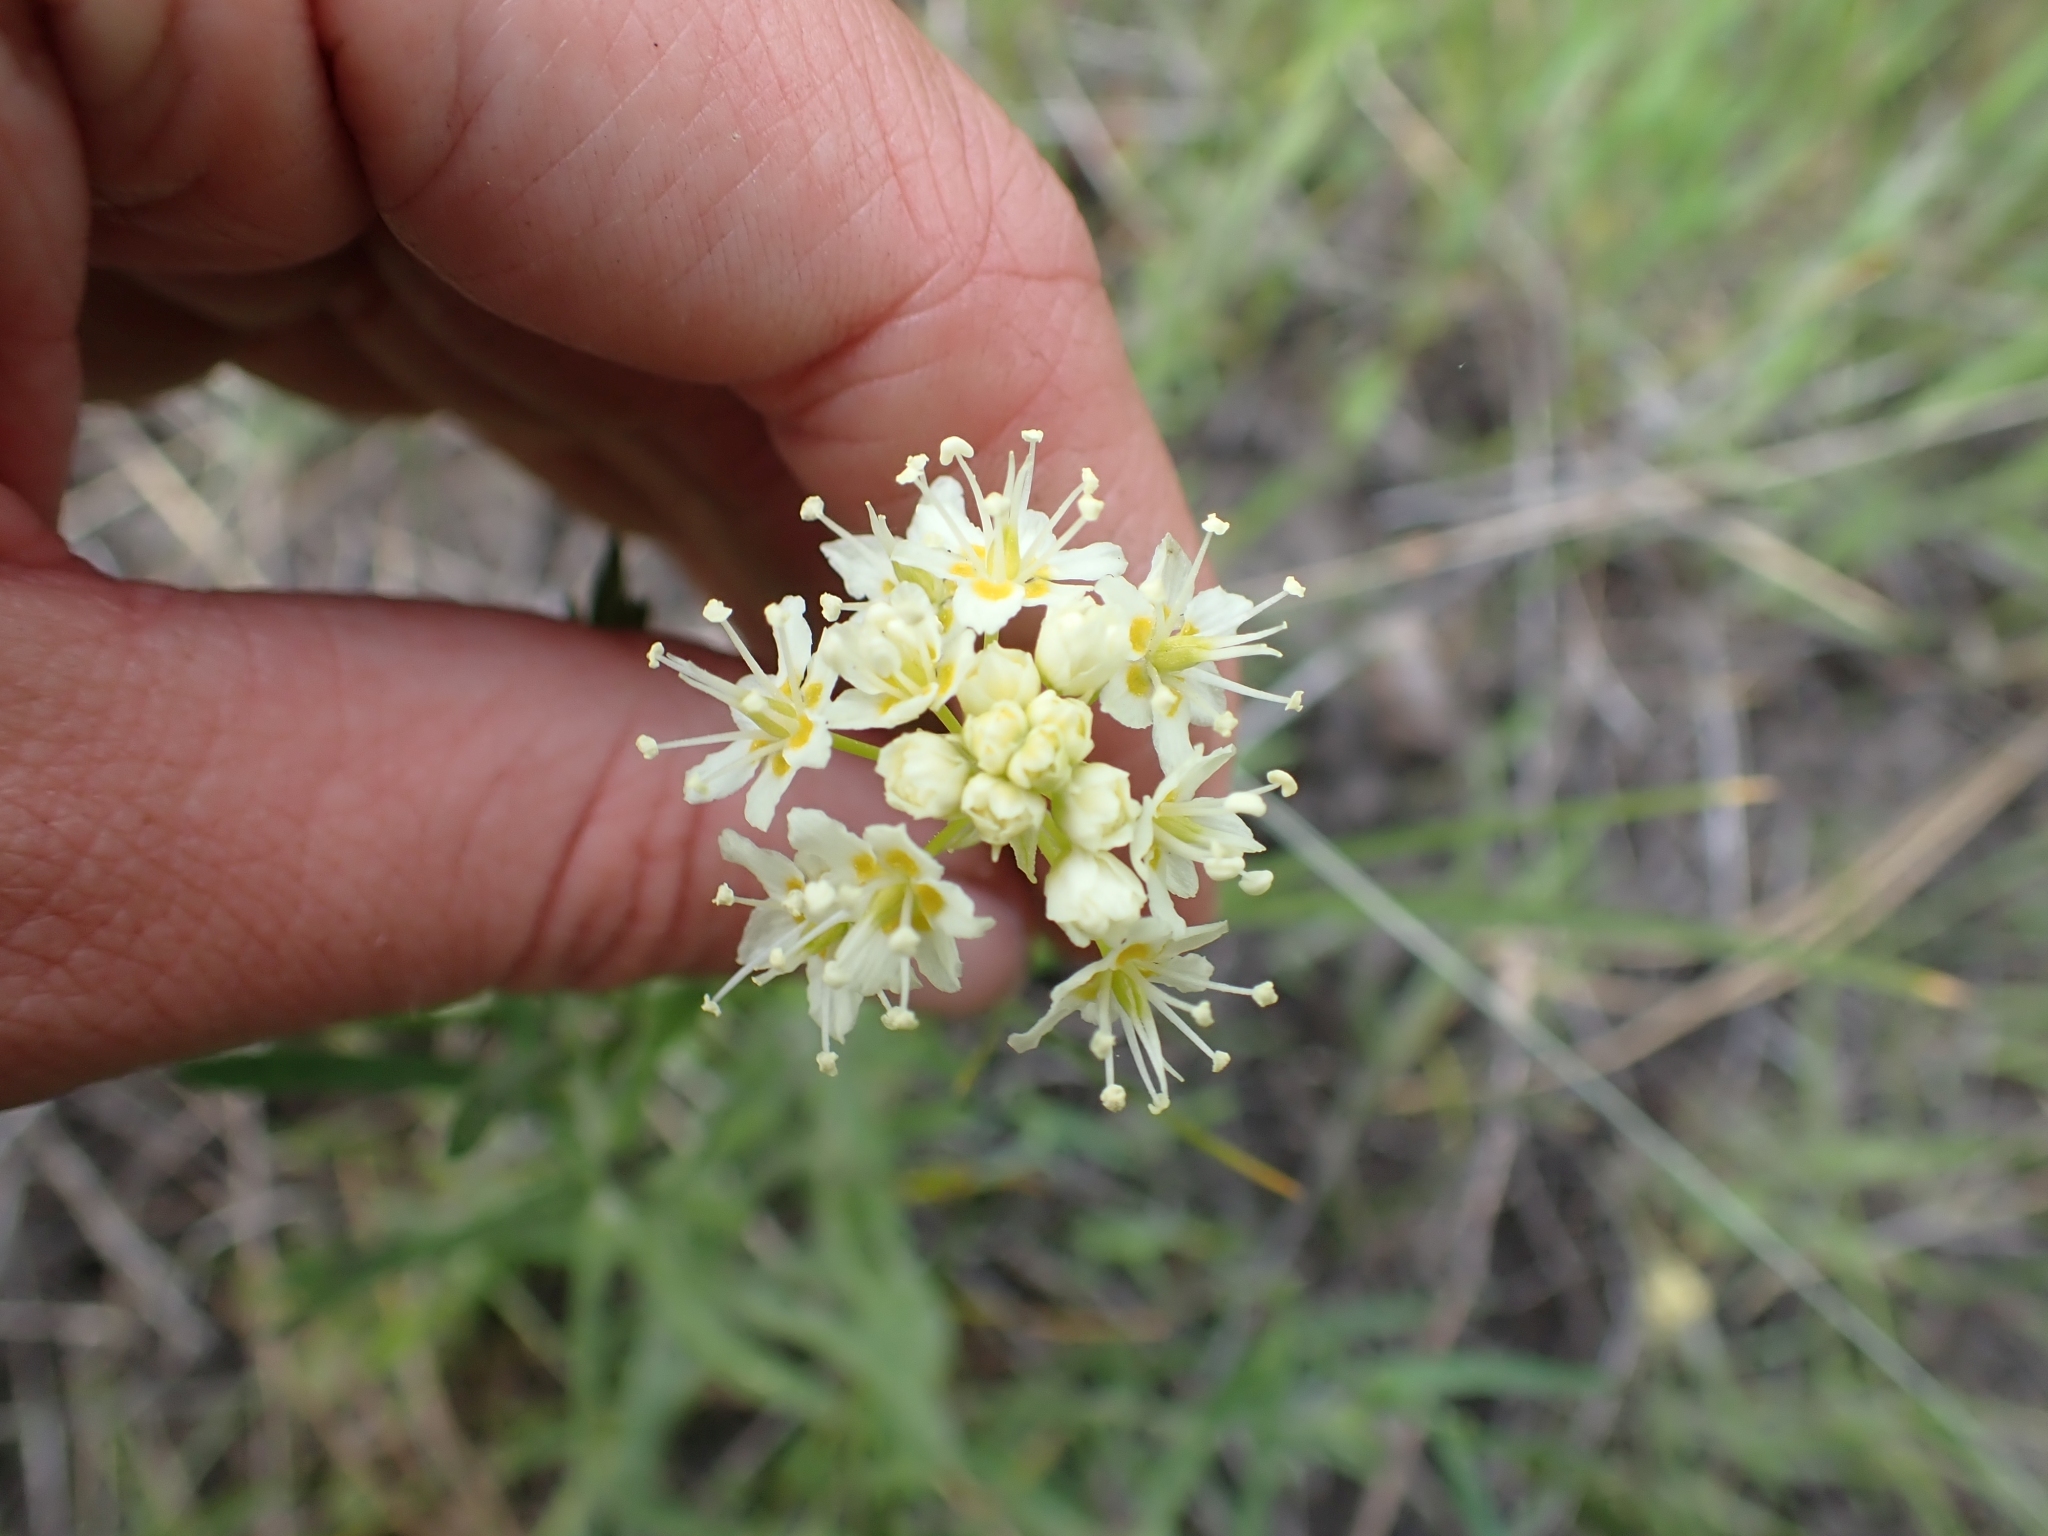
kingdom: Plantae
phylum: Tracheophyta
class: Liliopsida
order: Liliales
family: Melanthiaceae
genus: Toxicoscordion
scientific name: Toxicoscordion venenosum
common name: Meadow death camas
